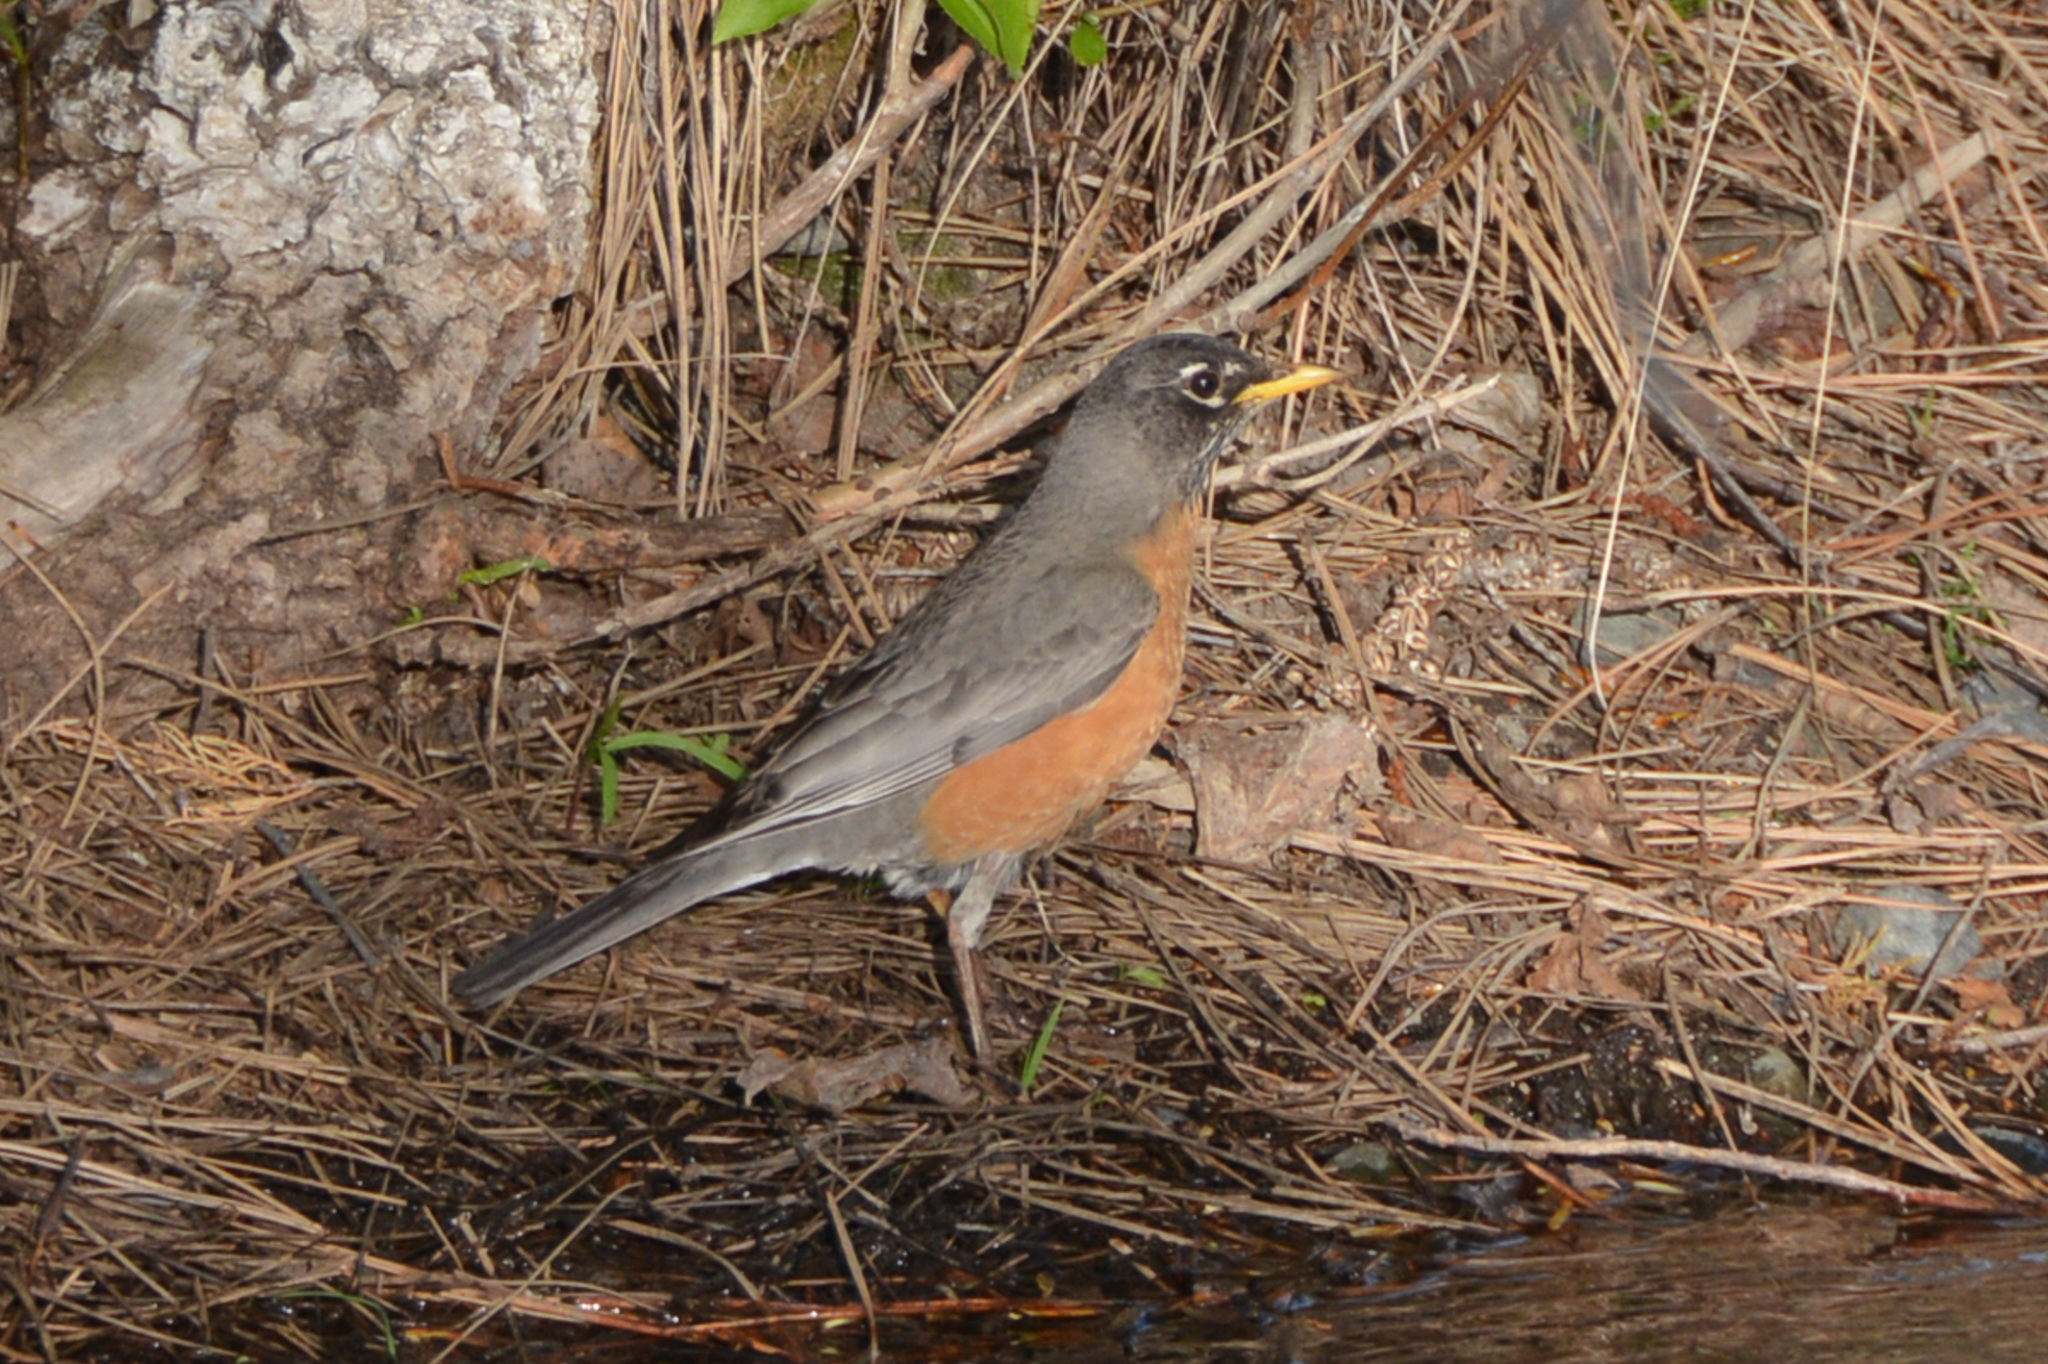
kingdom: Animalia
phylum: Chordata
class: Aves
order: Passeriformes
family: Turdidae
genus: Turdus
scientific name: Turdus migratorius
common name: American robin
